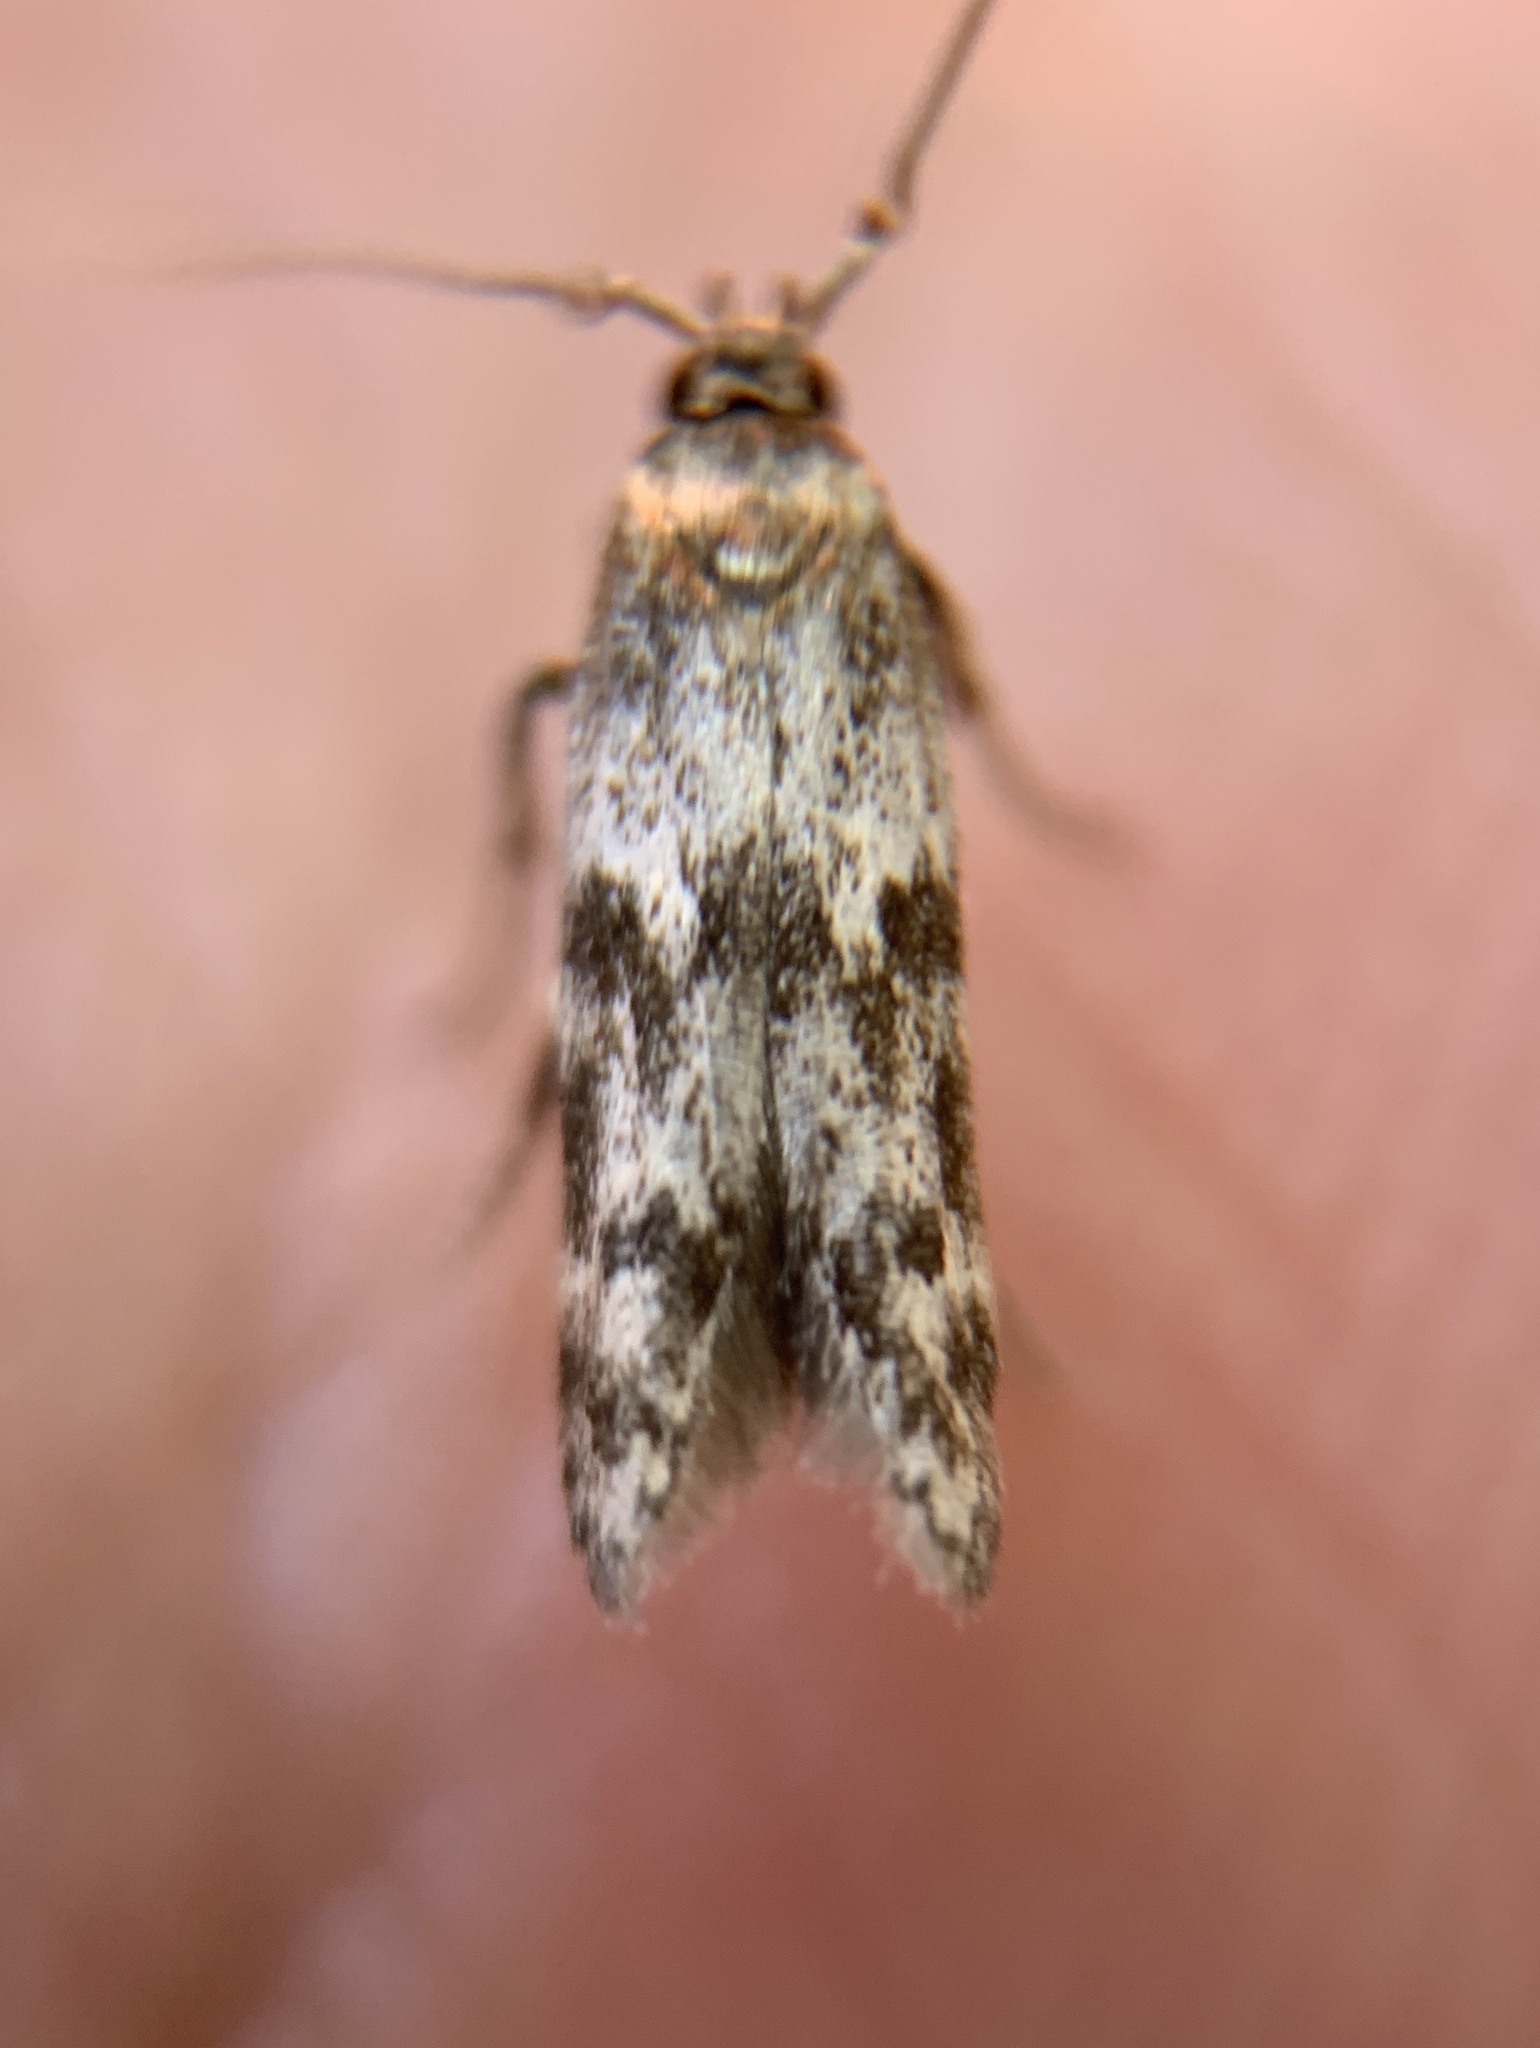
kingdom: Animalia
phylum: Arthropoda
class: Insecta
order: Lepidoptera
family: Blastobasidae
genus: Asaphocrita
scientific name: Asaphocrita aphidiella
